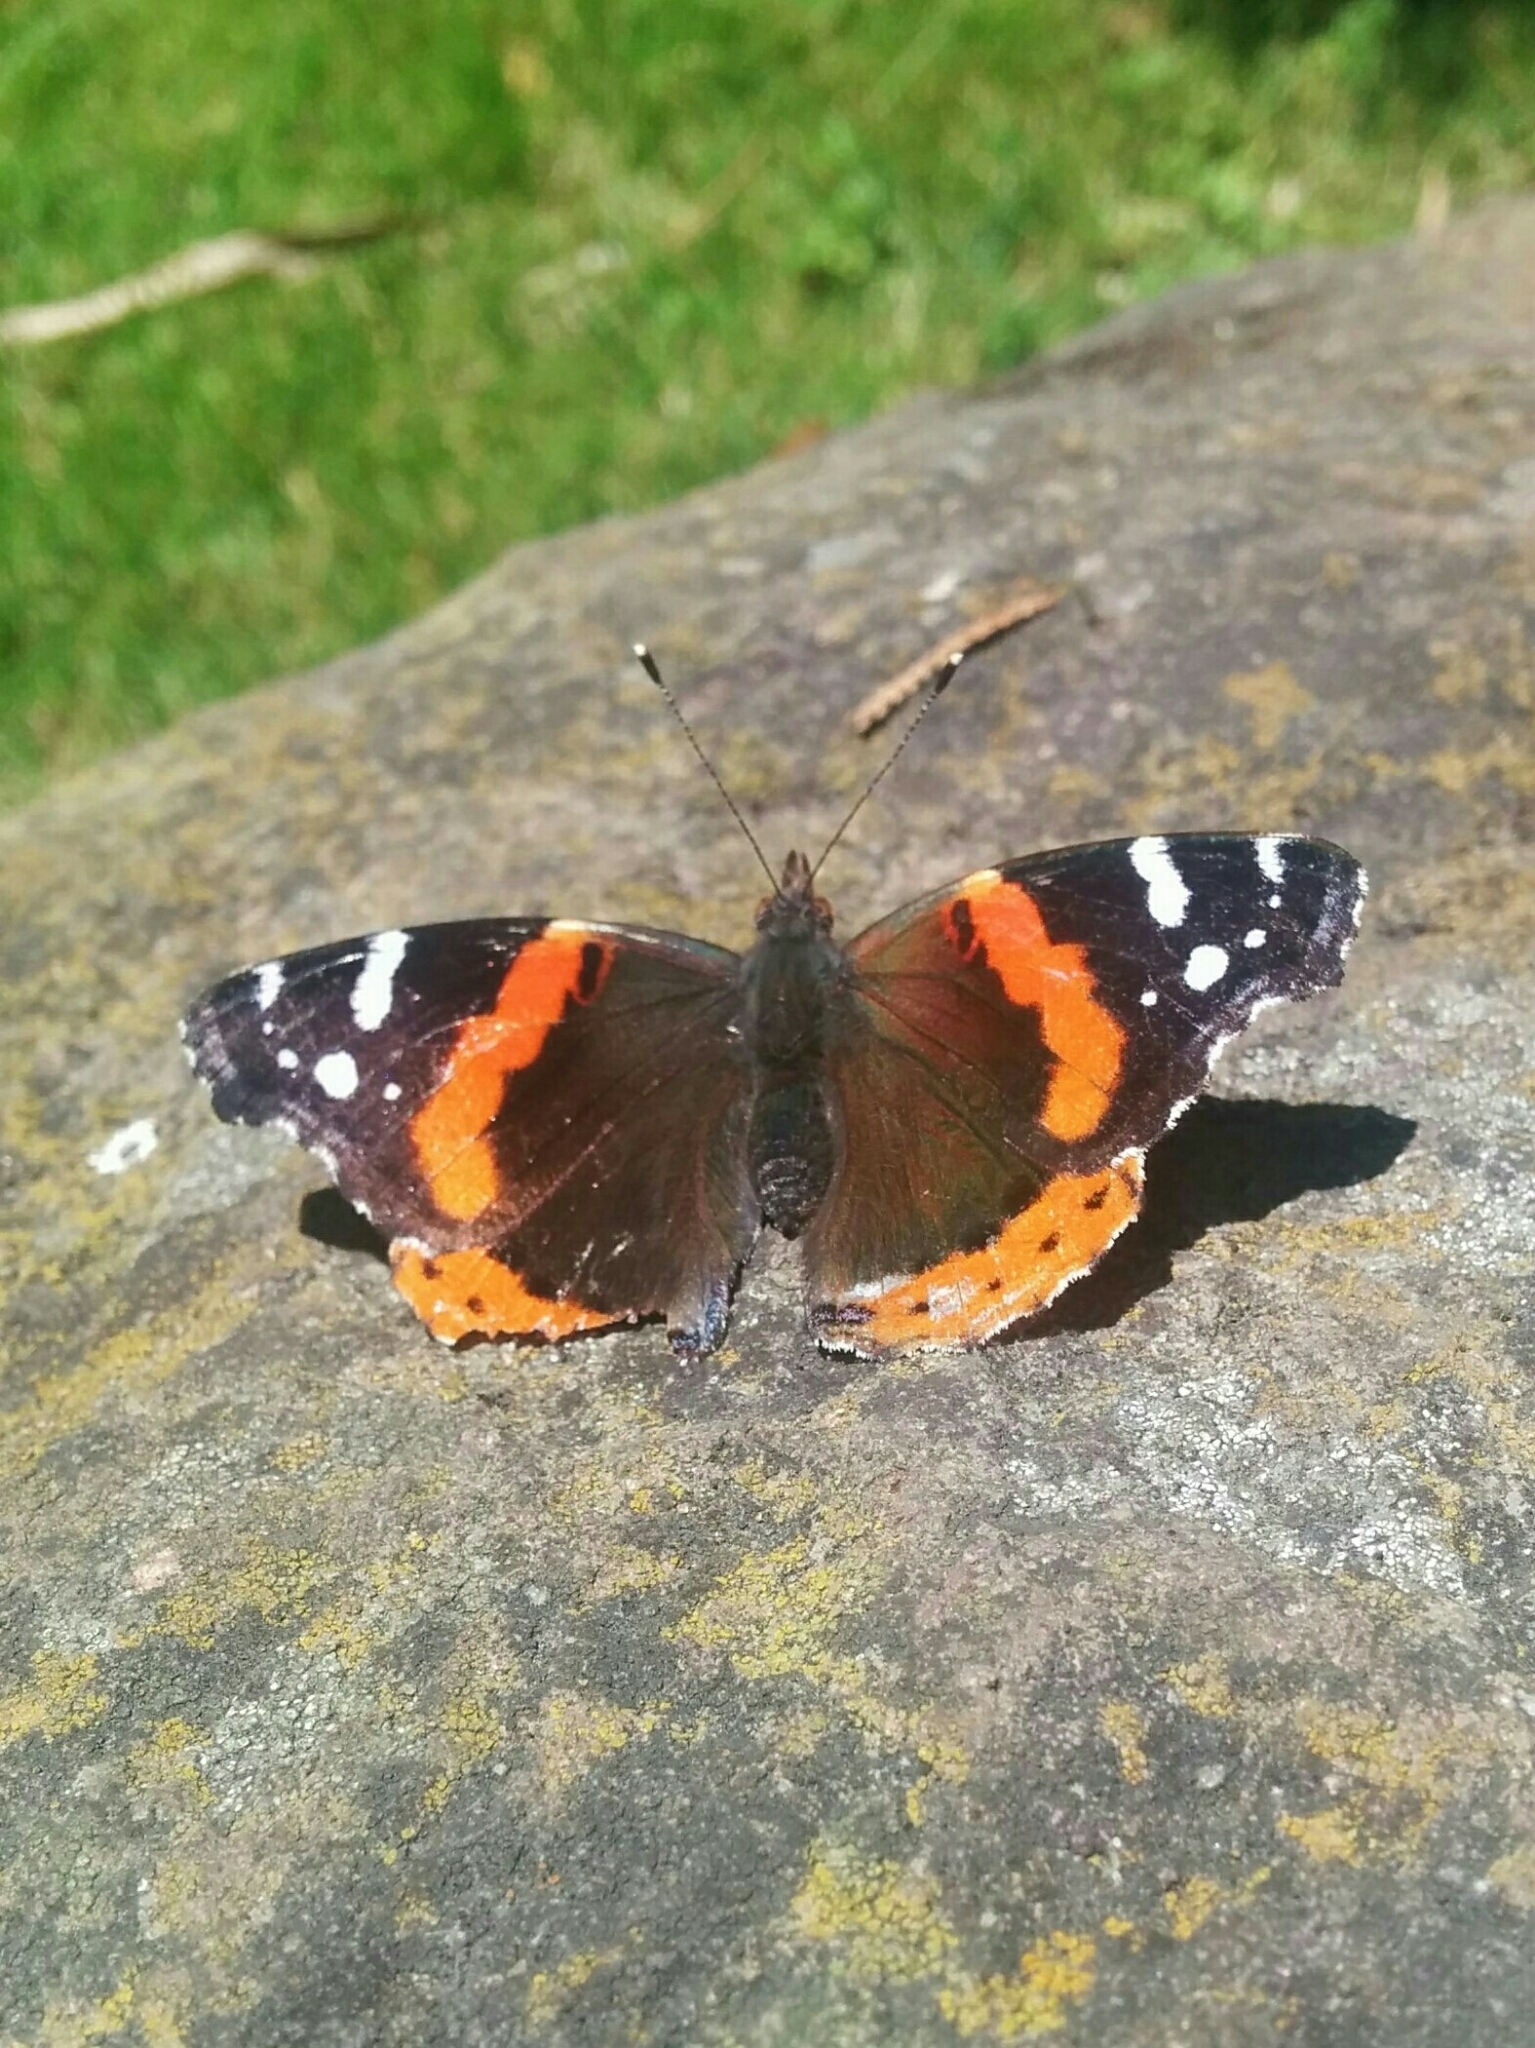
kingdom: Animalia
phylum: Arthropoda
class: Insecta
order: Lepidoptera
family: Nymphalidae
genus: Vanessa
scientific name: Vanessa atalanta
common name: Red admiral
